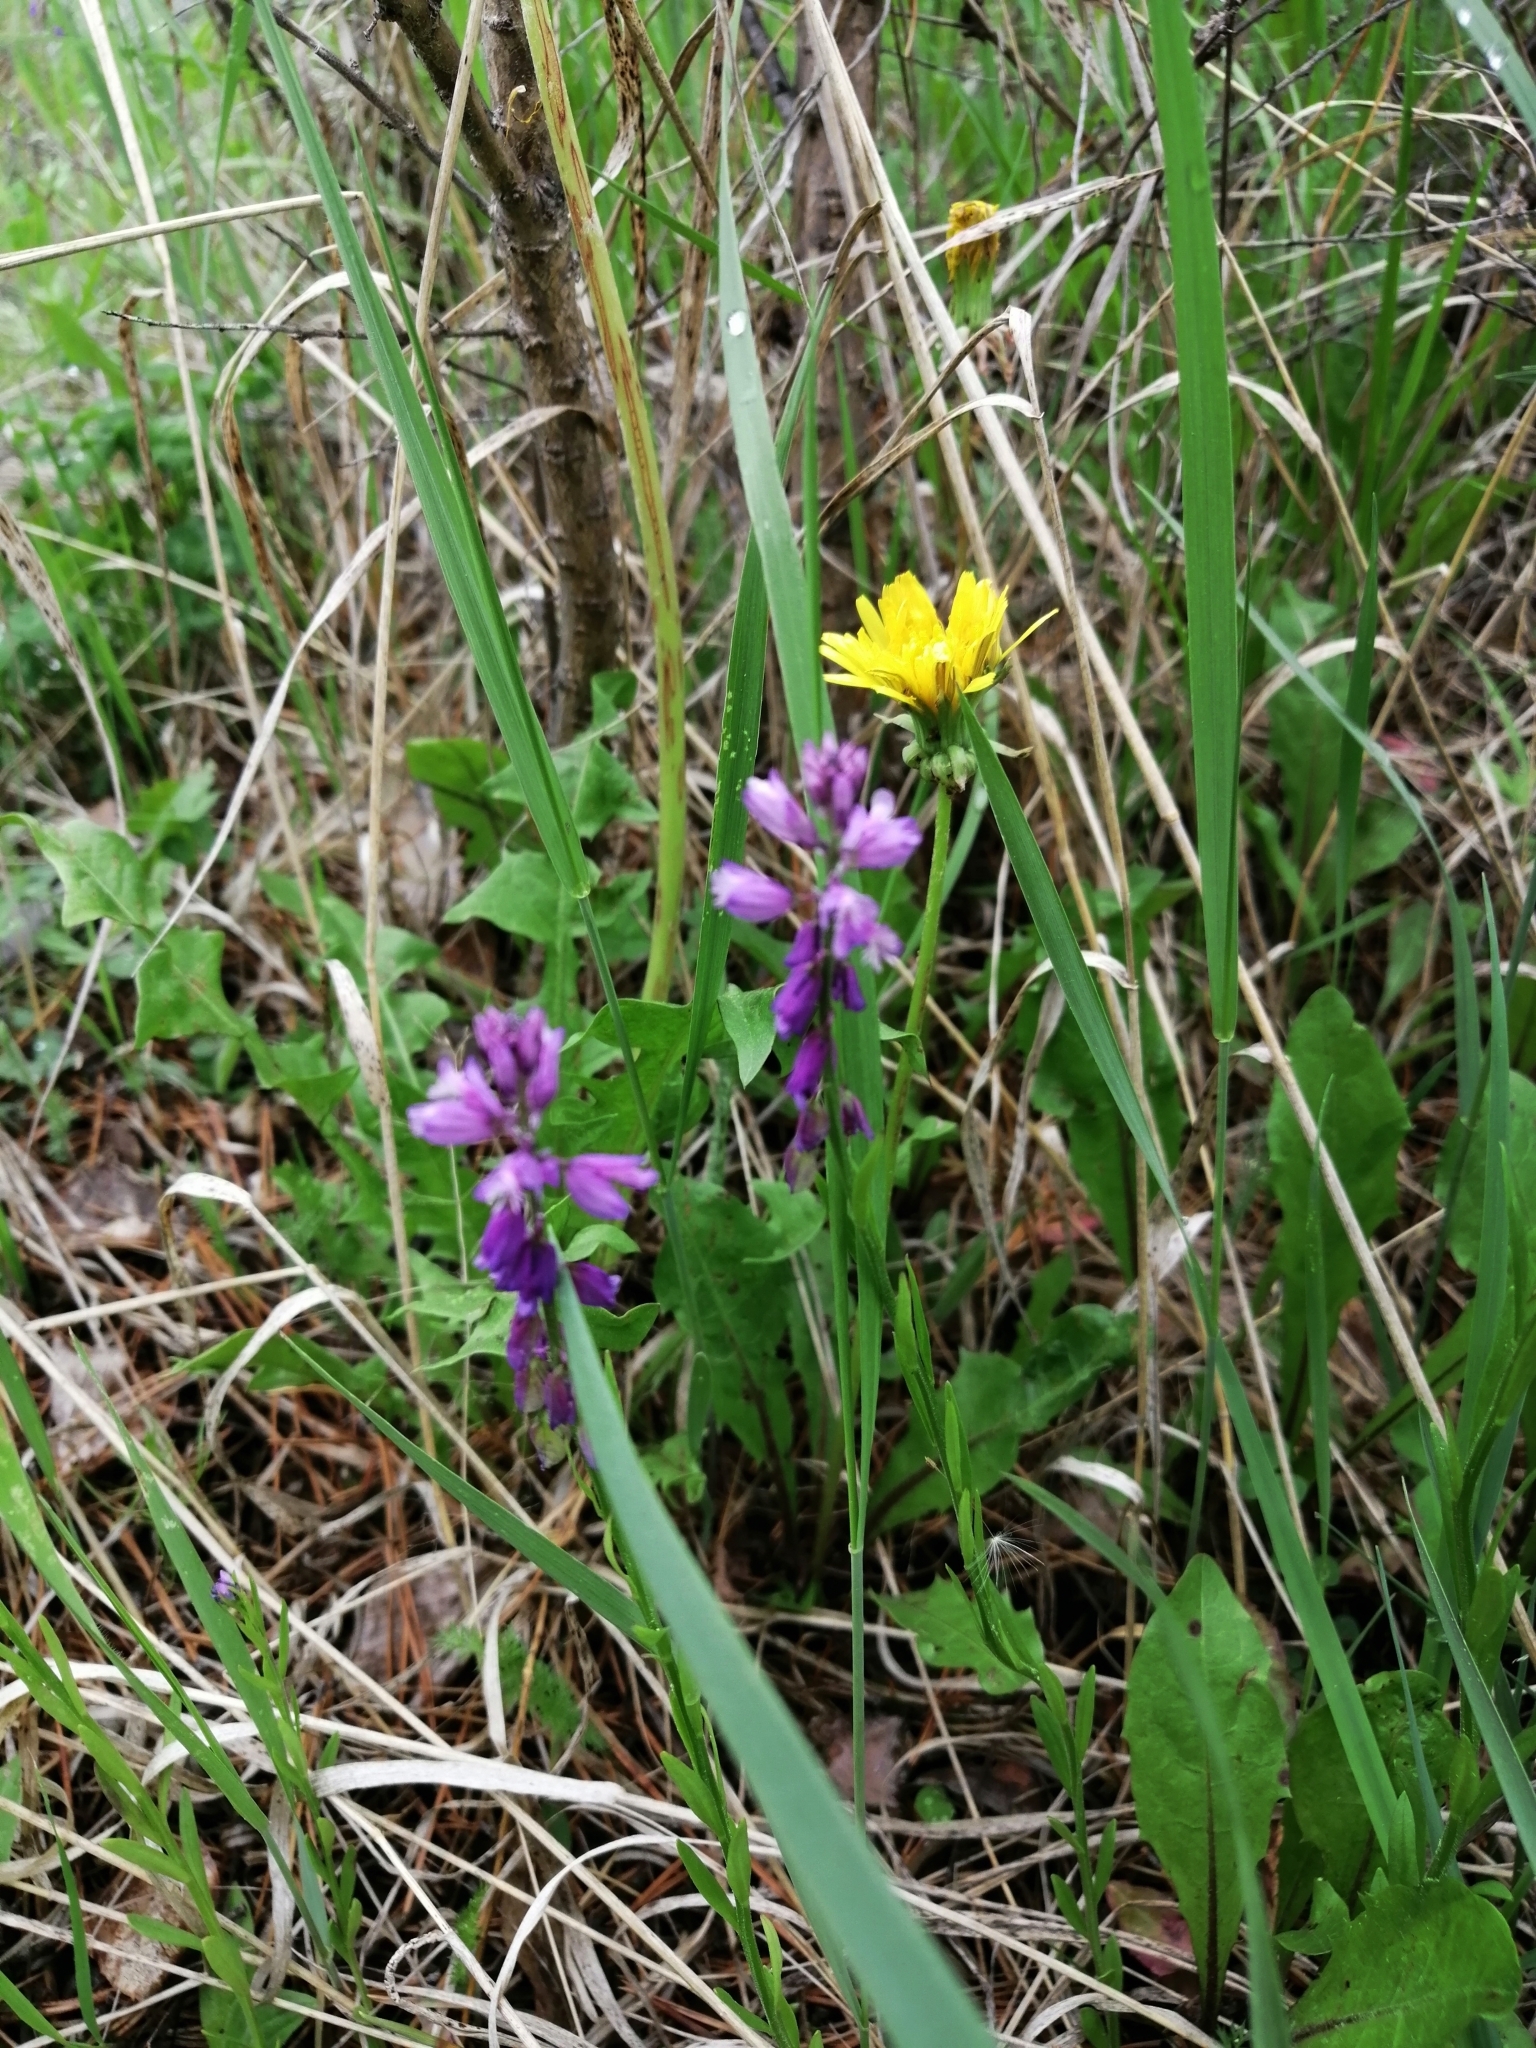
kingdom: Plantae
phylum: Tracheophyta
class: Magnoliopsida
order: Fabales
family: Polygalaceae
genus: Polygala
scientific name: Polygala comosa
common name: Tufted milkwort
